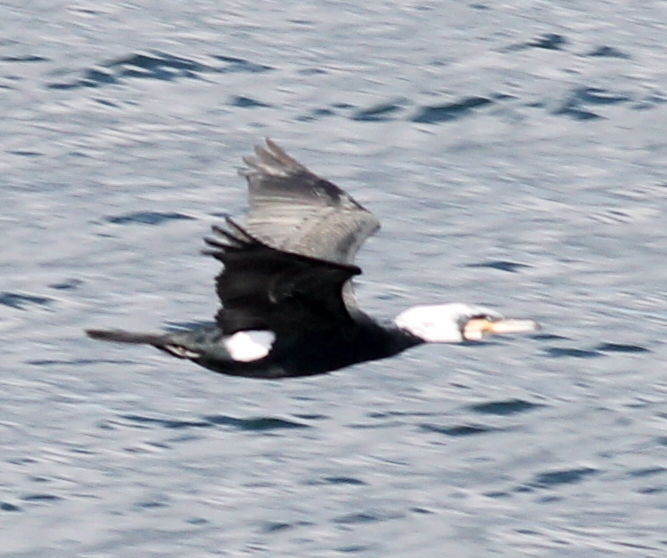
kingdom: Animalia
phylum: Chordata
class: Aves
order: Suliformes
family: Phalacrocoracidae
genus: Phalacrocorax
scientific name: Phalacrocorax carbo
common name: Great cormorant
